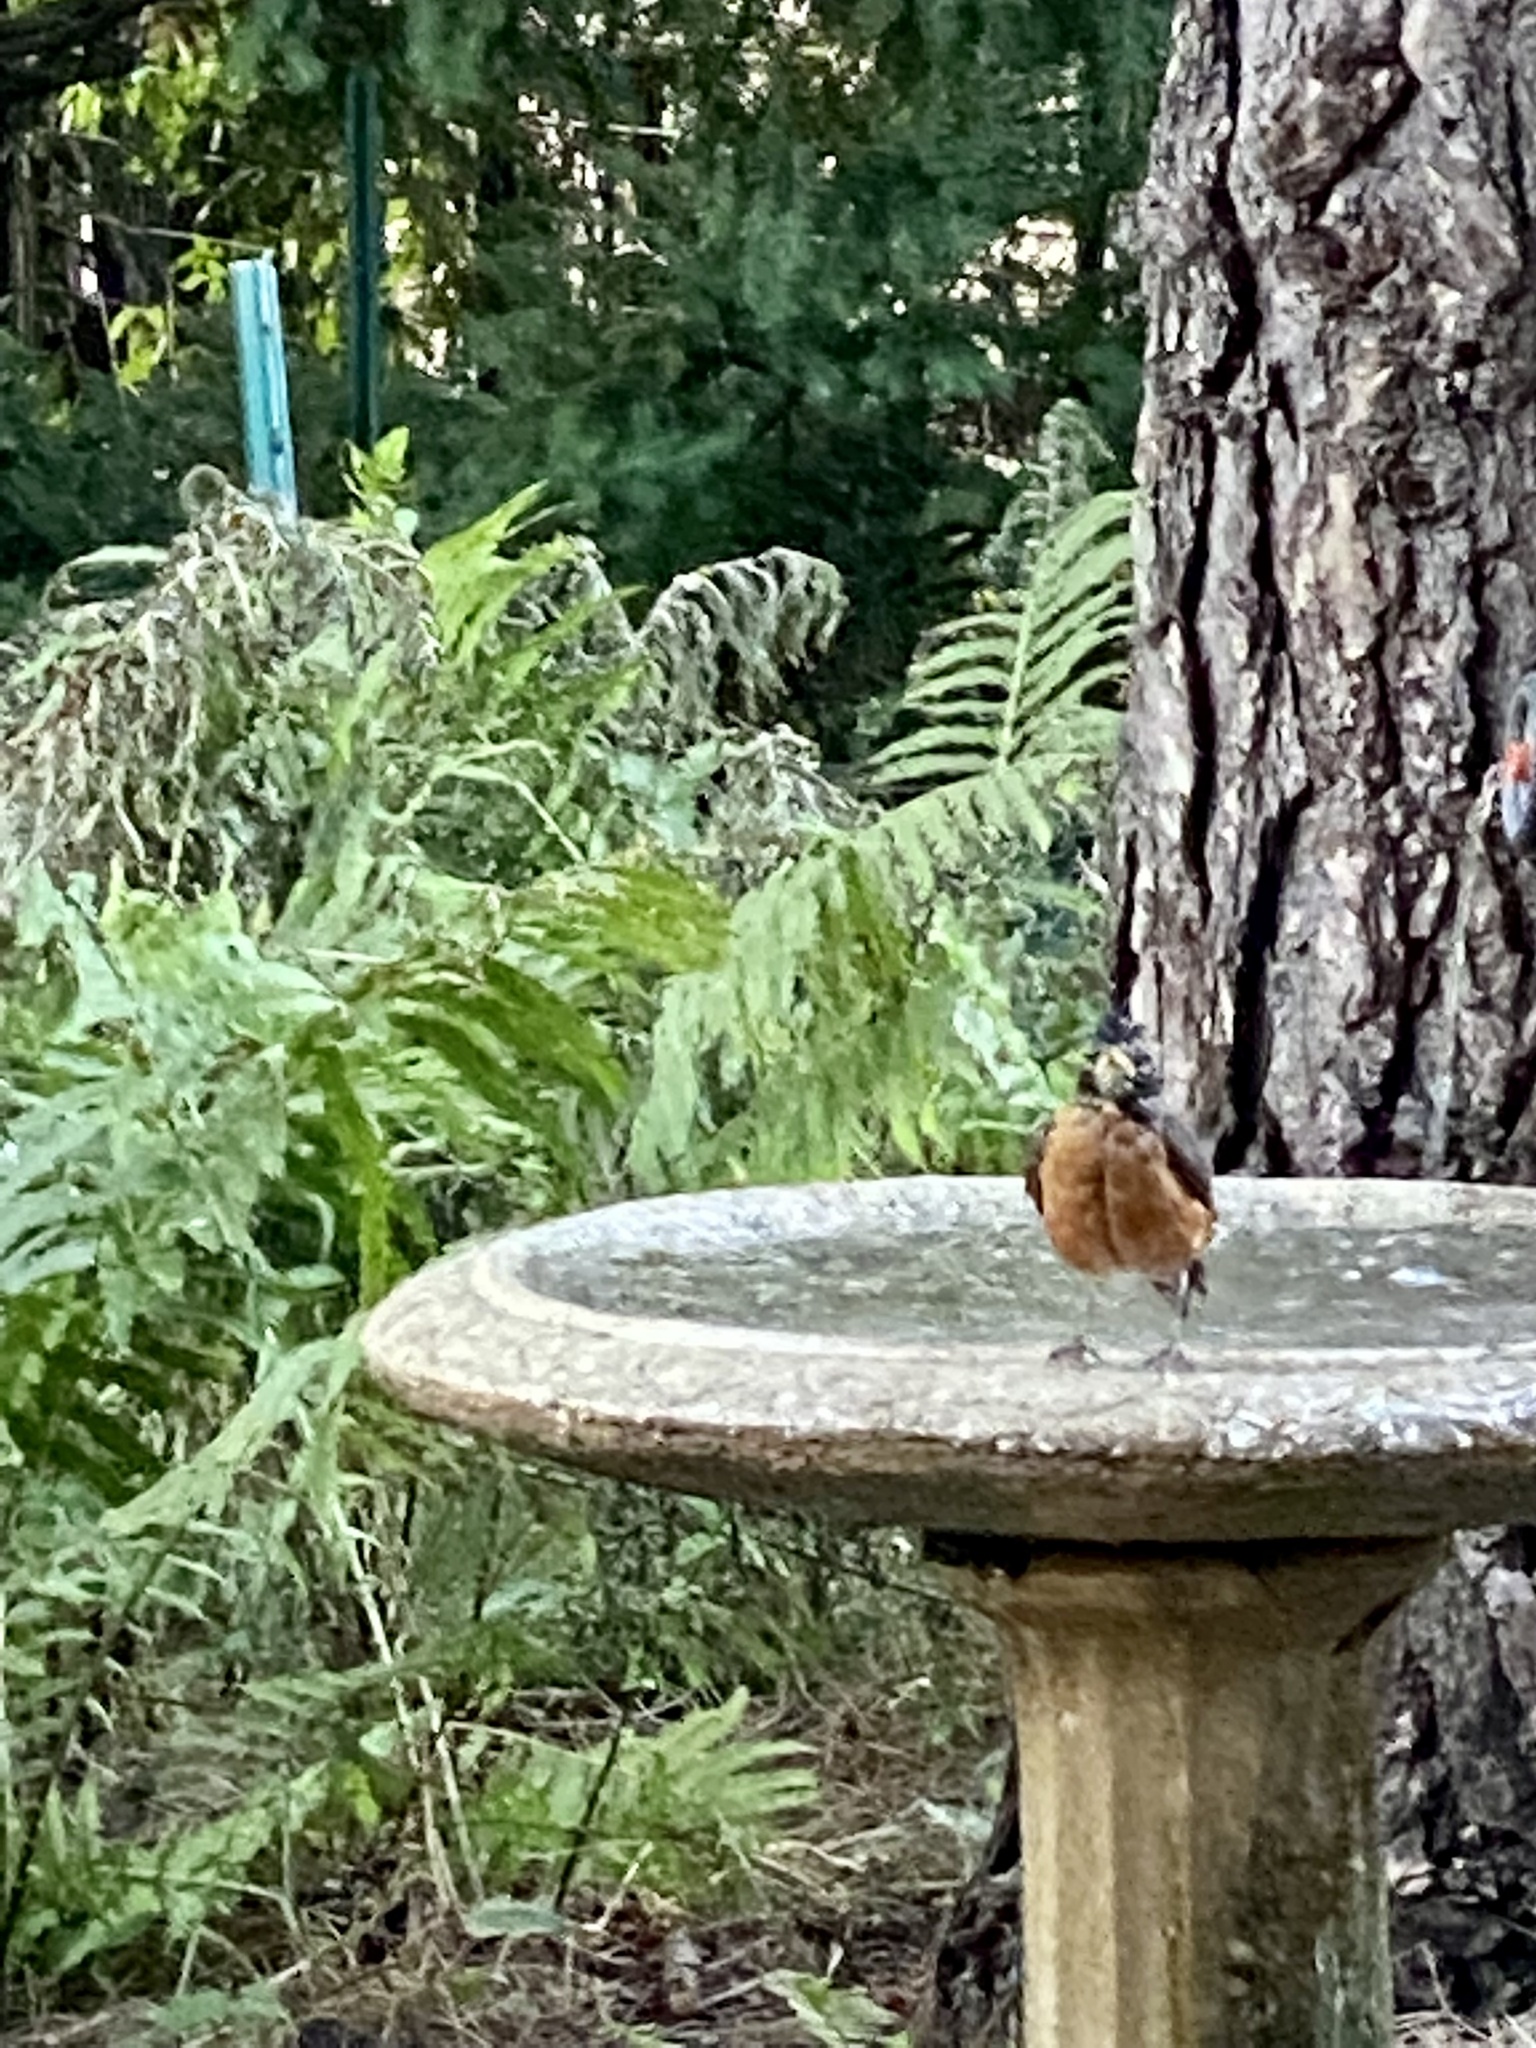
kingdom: Animalia
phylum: Chordata
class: Aves
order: Passeriformes
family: Turdidae
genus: Turdus
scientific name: Turdus migratorius
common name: American robin
